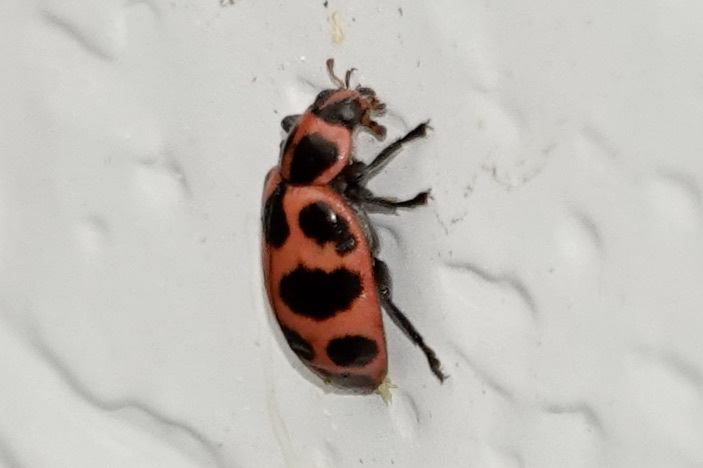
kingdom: Animalia
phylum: Arthropoda
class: Insecta
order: Coleoptera
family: Coccinellidae
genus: Coleomegilla
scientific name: Coleomegilla maculata
